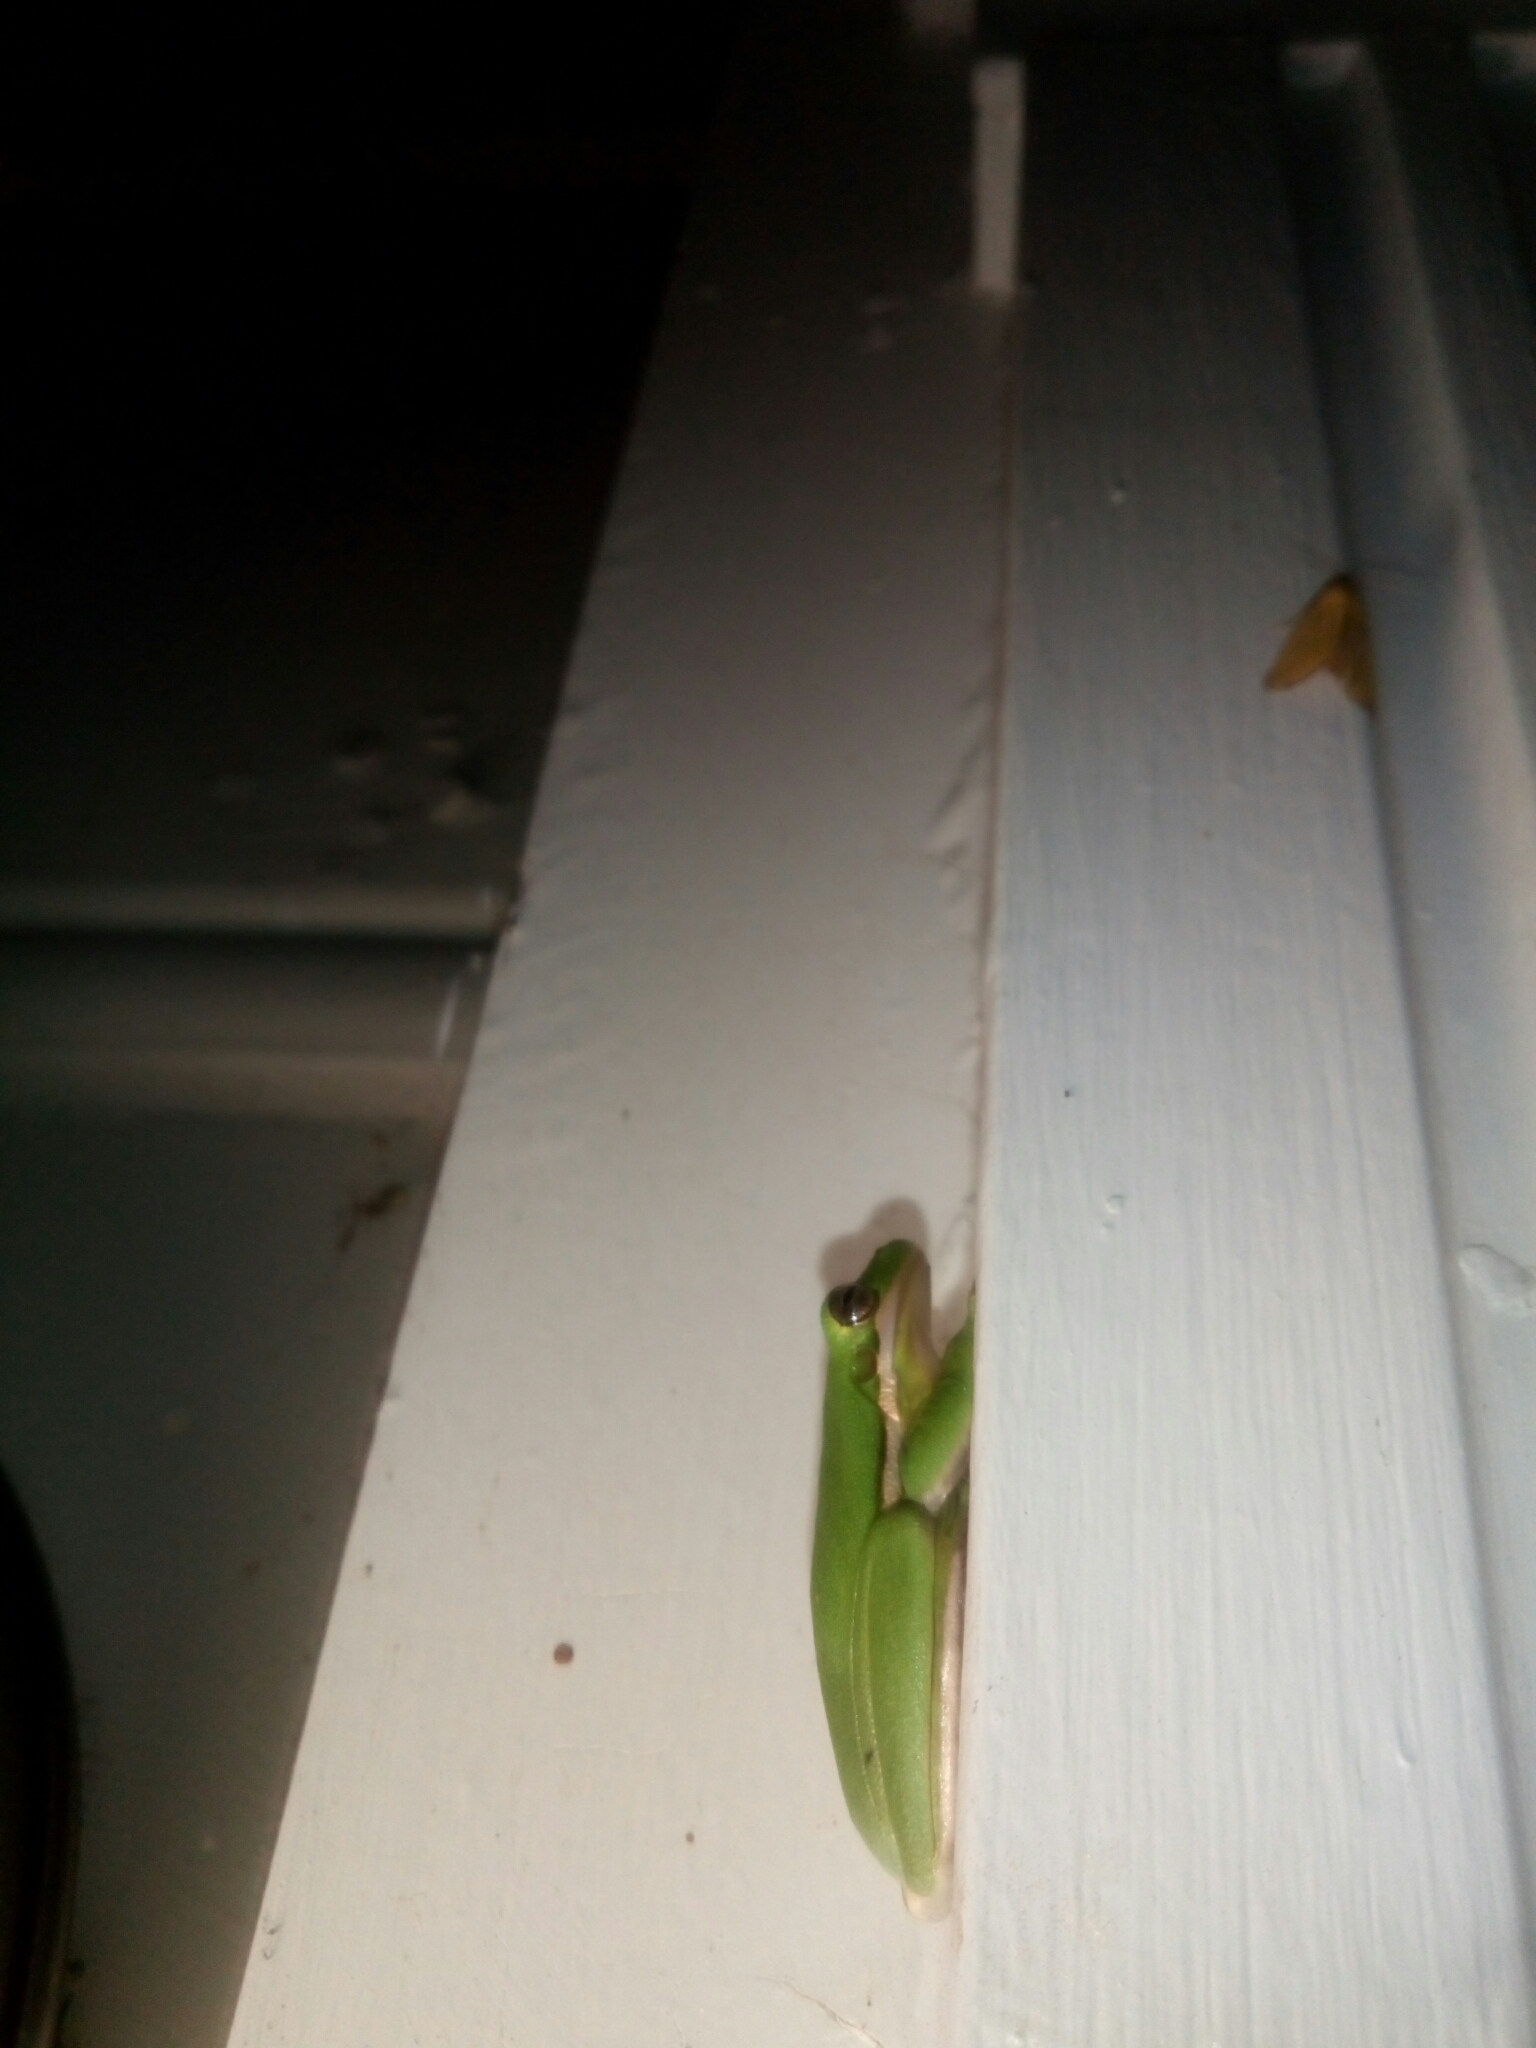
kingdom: Animalia
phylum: Chordata
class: Amphibia
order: Anura
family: Hylidae
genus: Dryophytes
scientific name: Dryophytes cinereus
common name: Green treefrog
